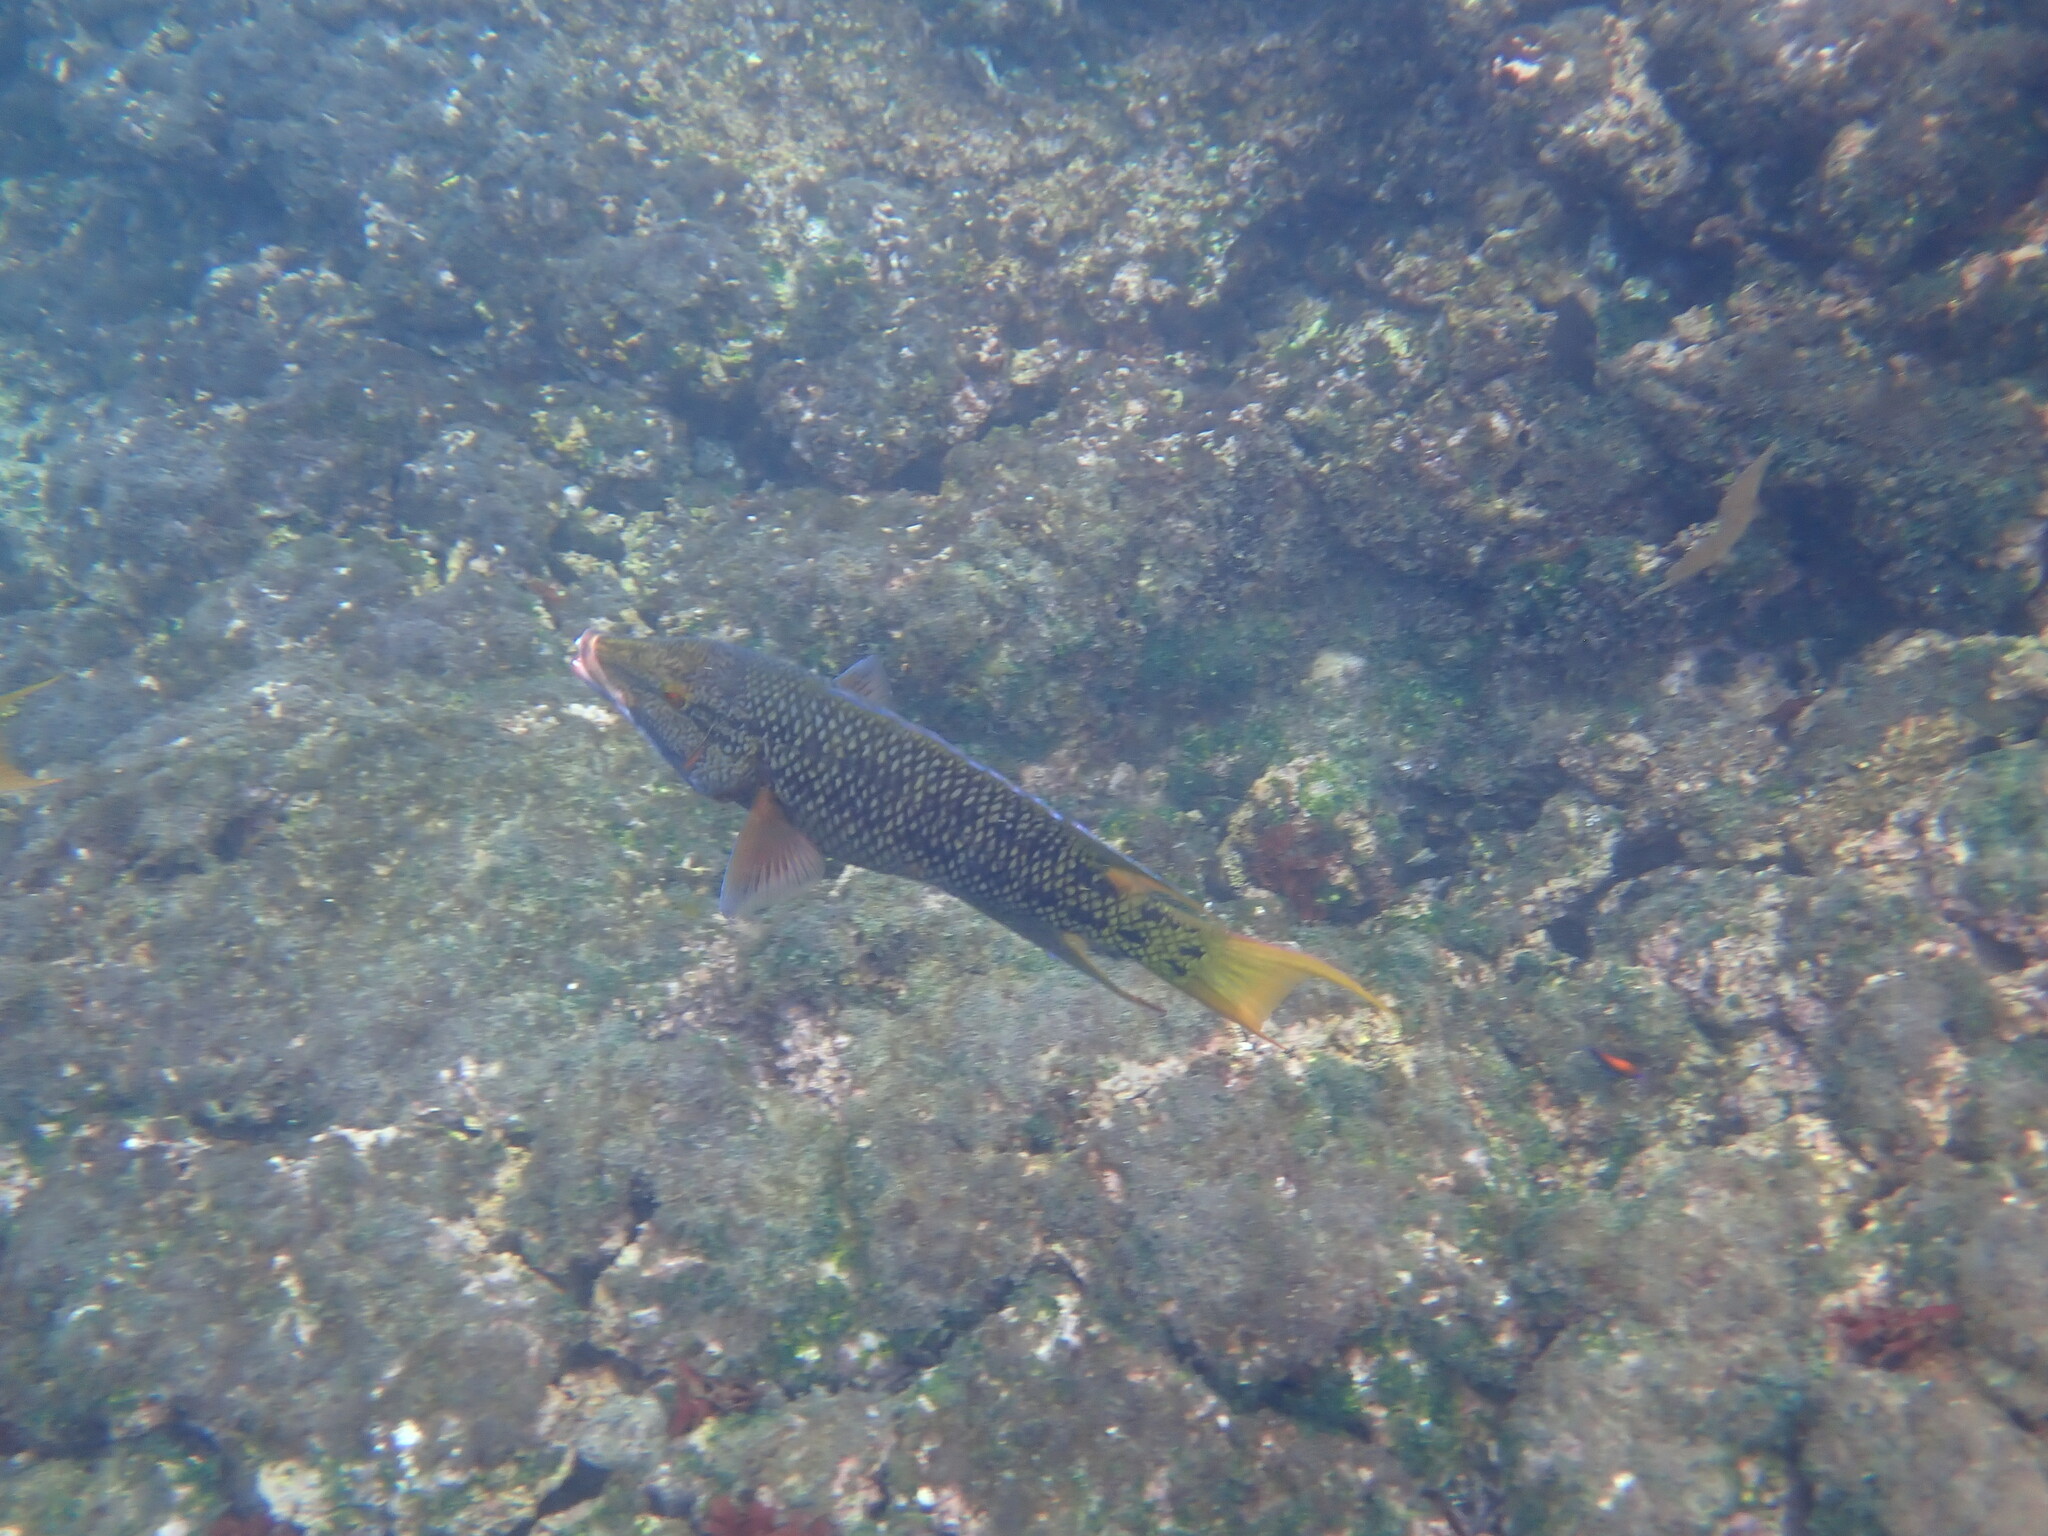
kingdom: Animalia
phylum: Chordata
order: Perciformes
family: Labridae
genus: Bodianus
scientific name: Bodianus diplotaenia
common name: Mexican hogfish
